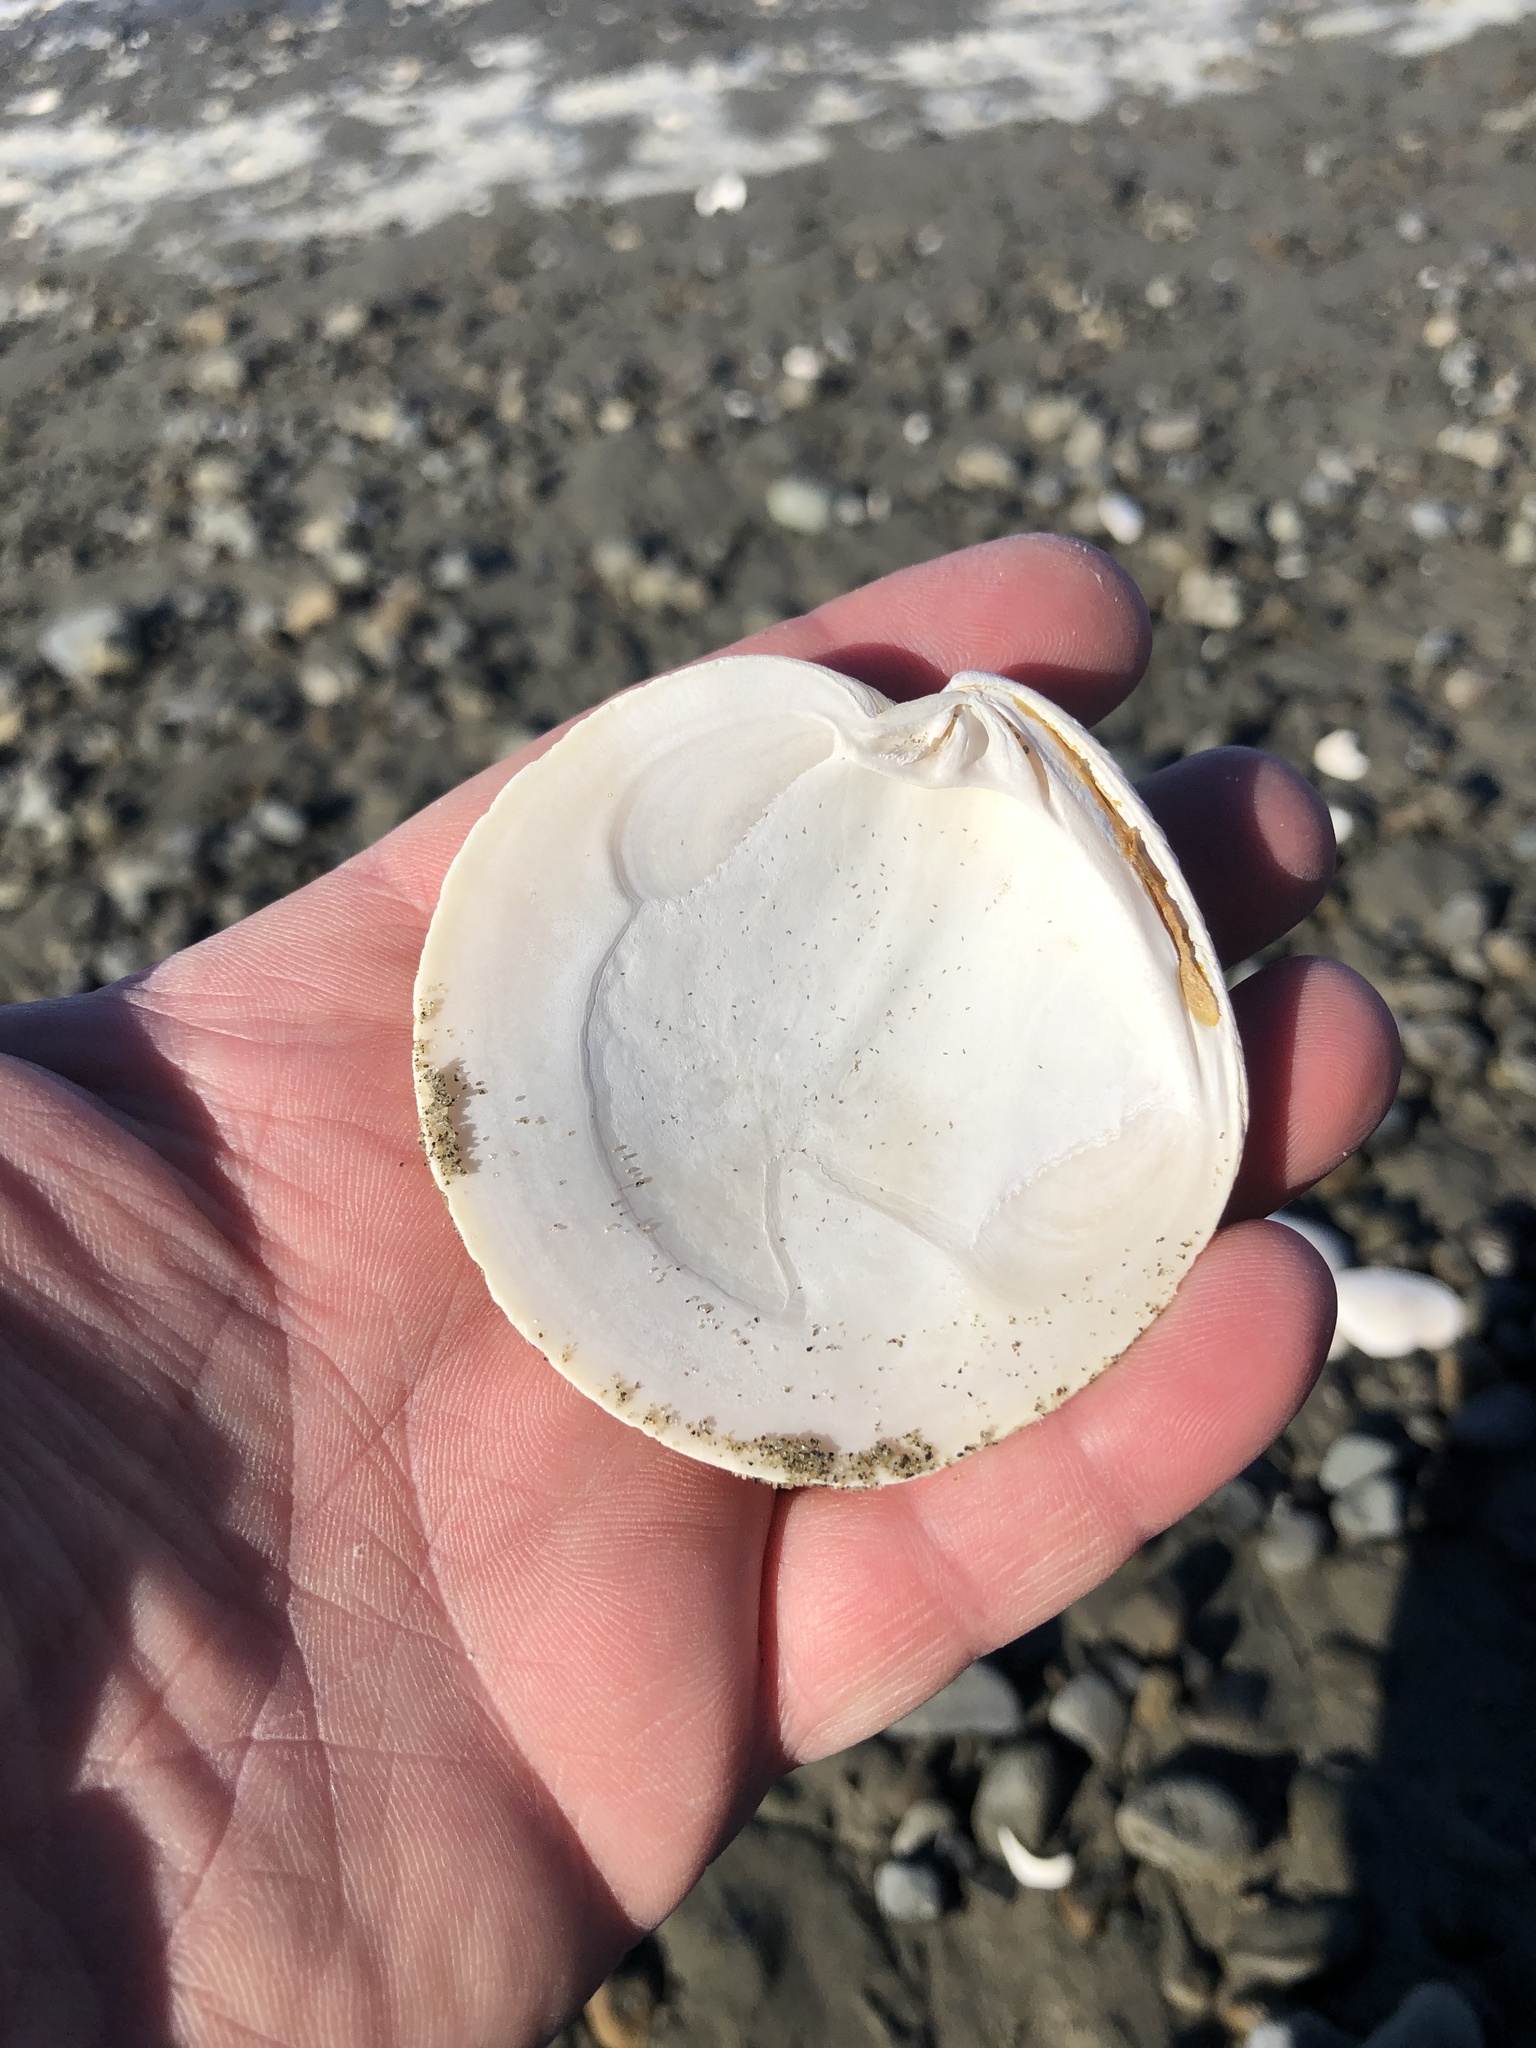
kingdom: Animalia
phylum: Mollusca
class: Bivalvia
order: Venerida
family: Veneridae
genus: Dosinia
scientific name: Dosinia anus
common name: Old-woman dosinia
